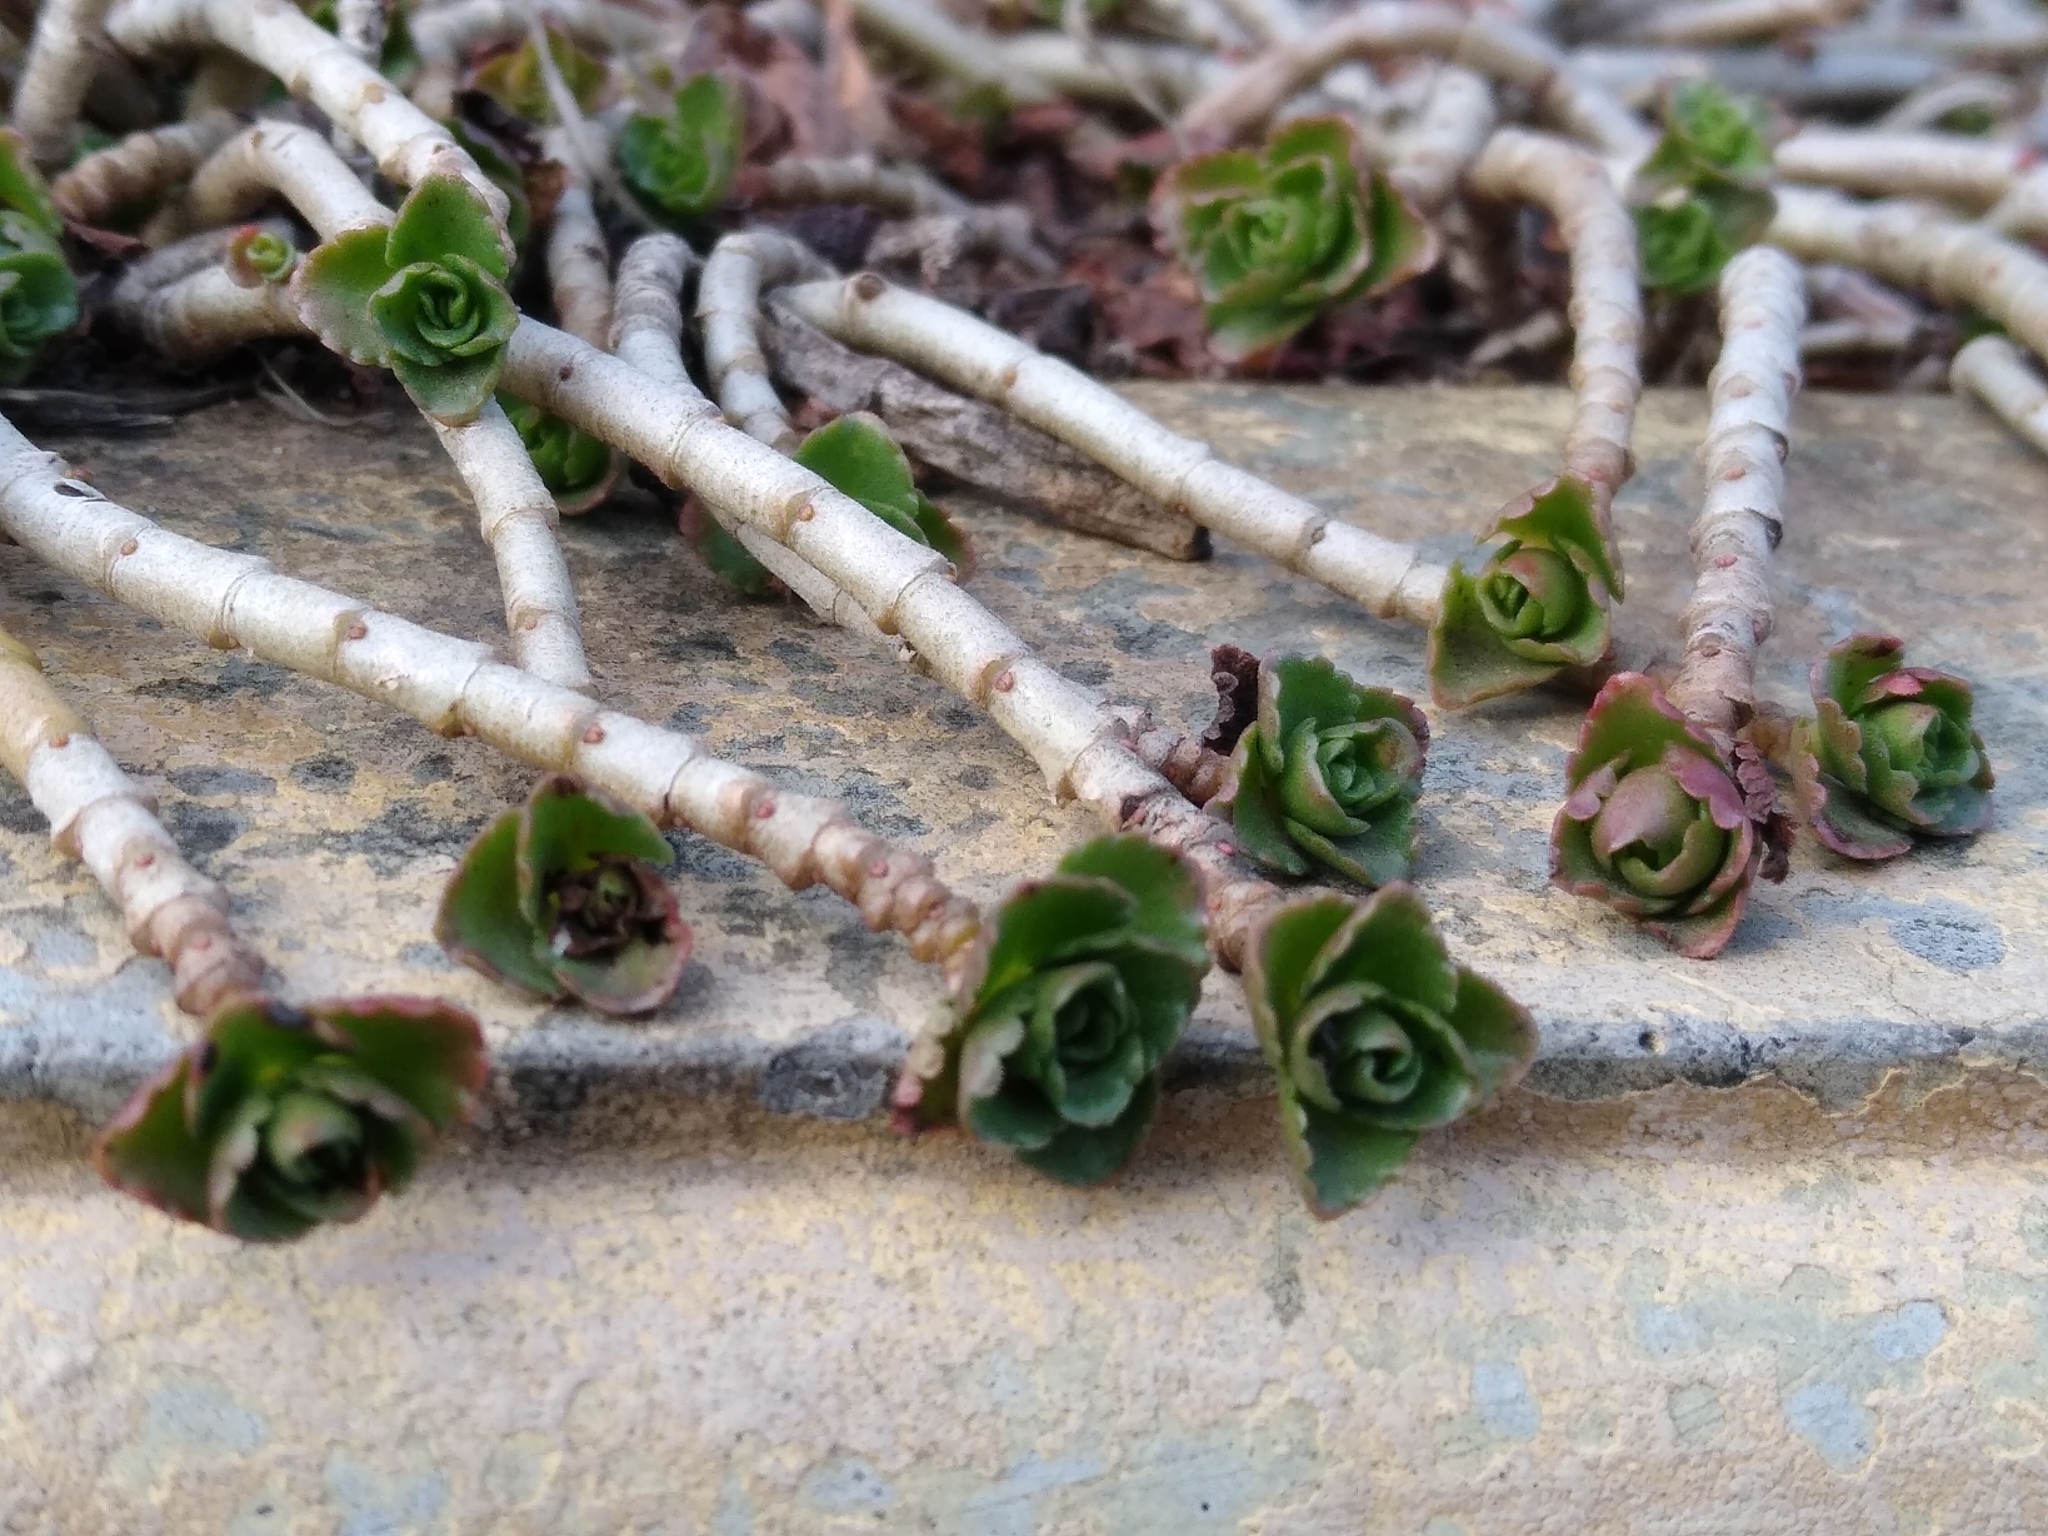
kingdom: Plantae
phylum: Tracheophyta
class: Magnoliopsida
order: Saxifragales
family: Crassulaceae
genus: Phedimus
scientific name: Phedimus spurius
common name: Caucasian stonecrop
